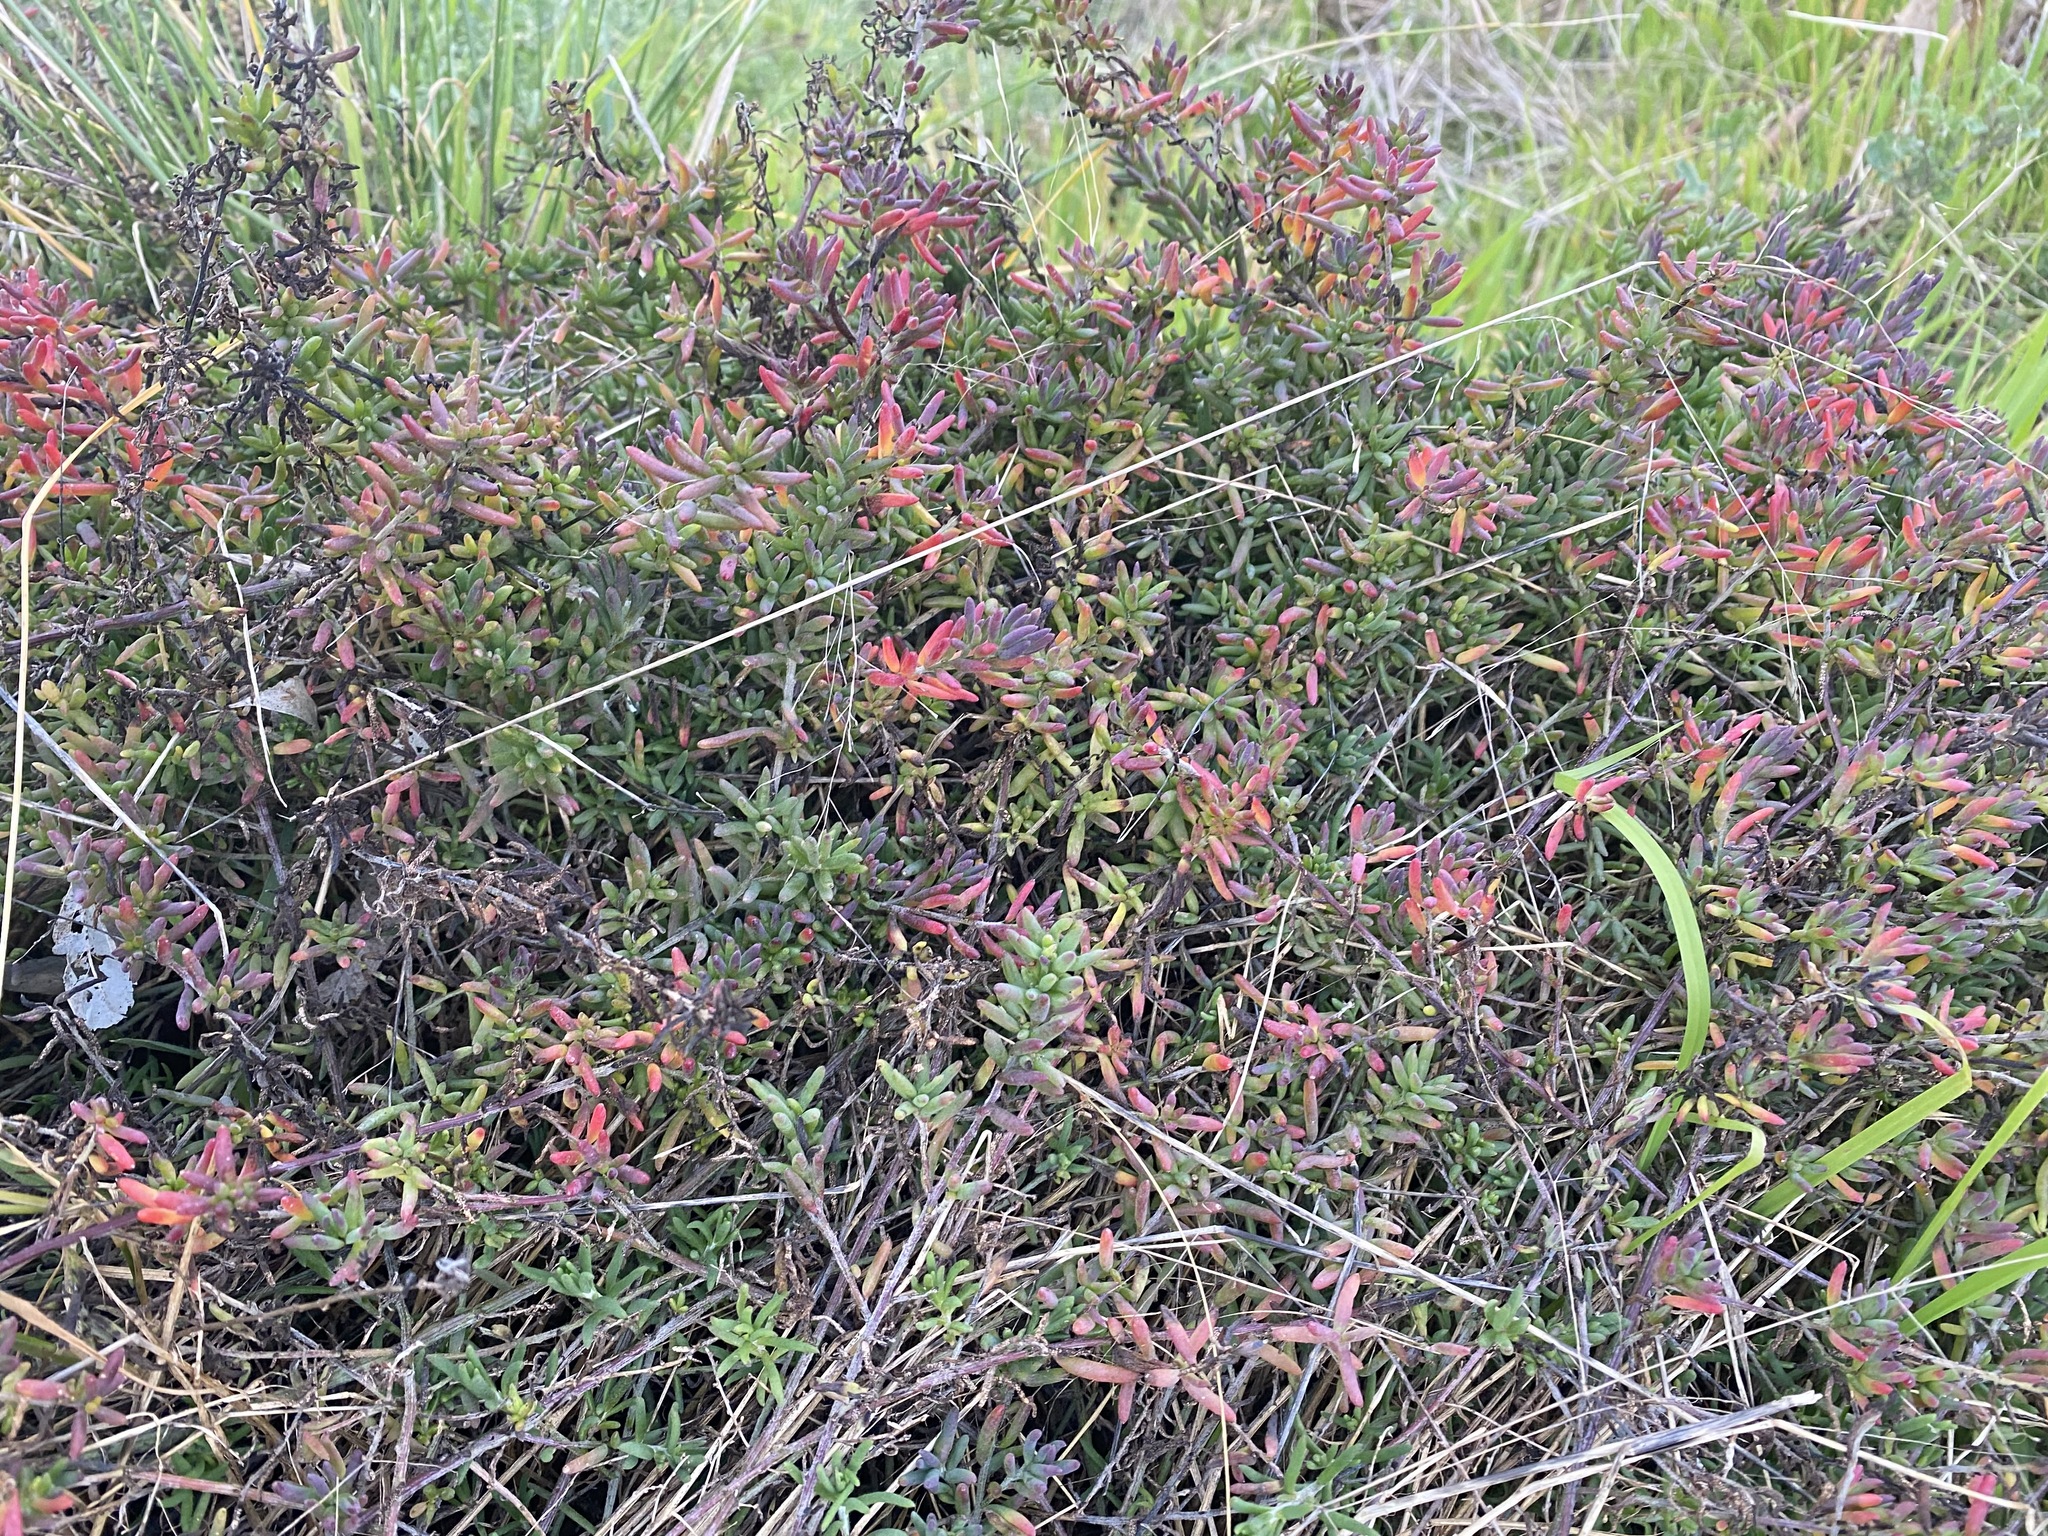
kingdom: Plantae
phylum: Tracheophyta
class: Magnoliopsida
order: Caryophyllales
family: Amaranthaceae
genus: Enchylaena
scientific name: Enchylaena tomentosa
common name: Ruby saltbush
